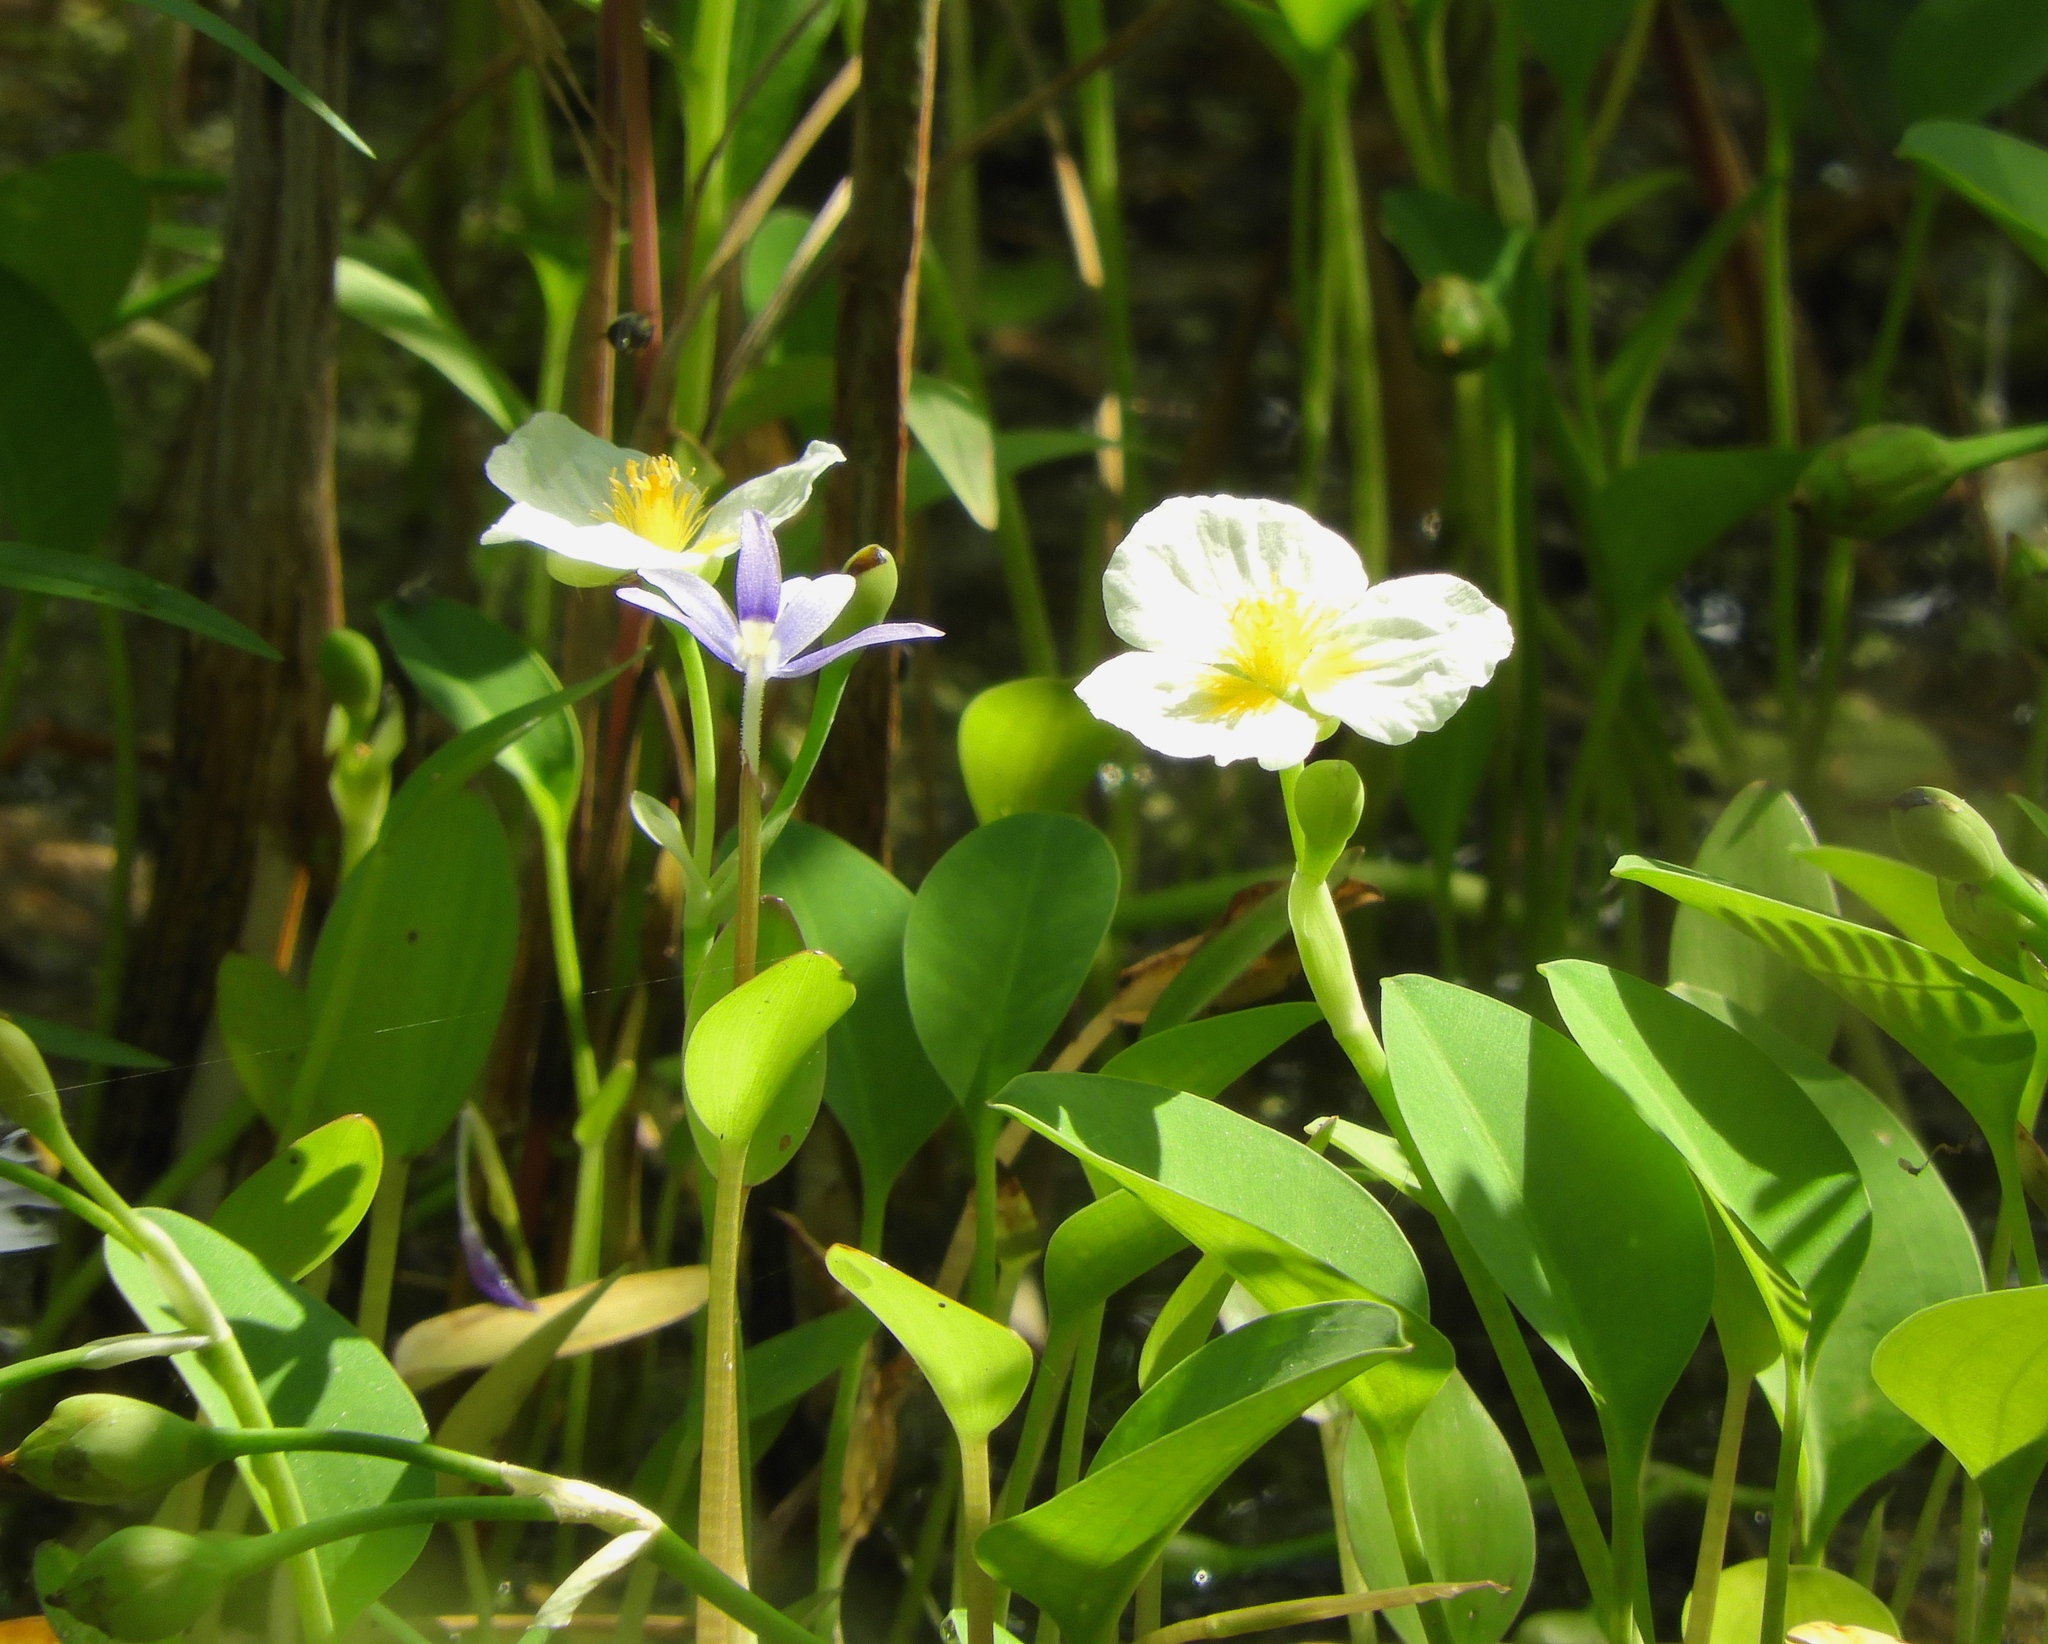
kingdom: Plantae
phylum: Tracheophyta
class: Liliopsida
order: Alismatales
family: Alismataceae
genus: Limnocharis
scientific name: Limnocharis flava
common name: Sawah-flower-rush
